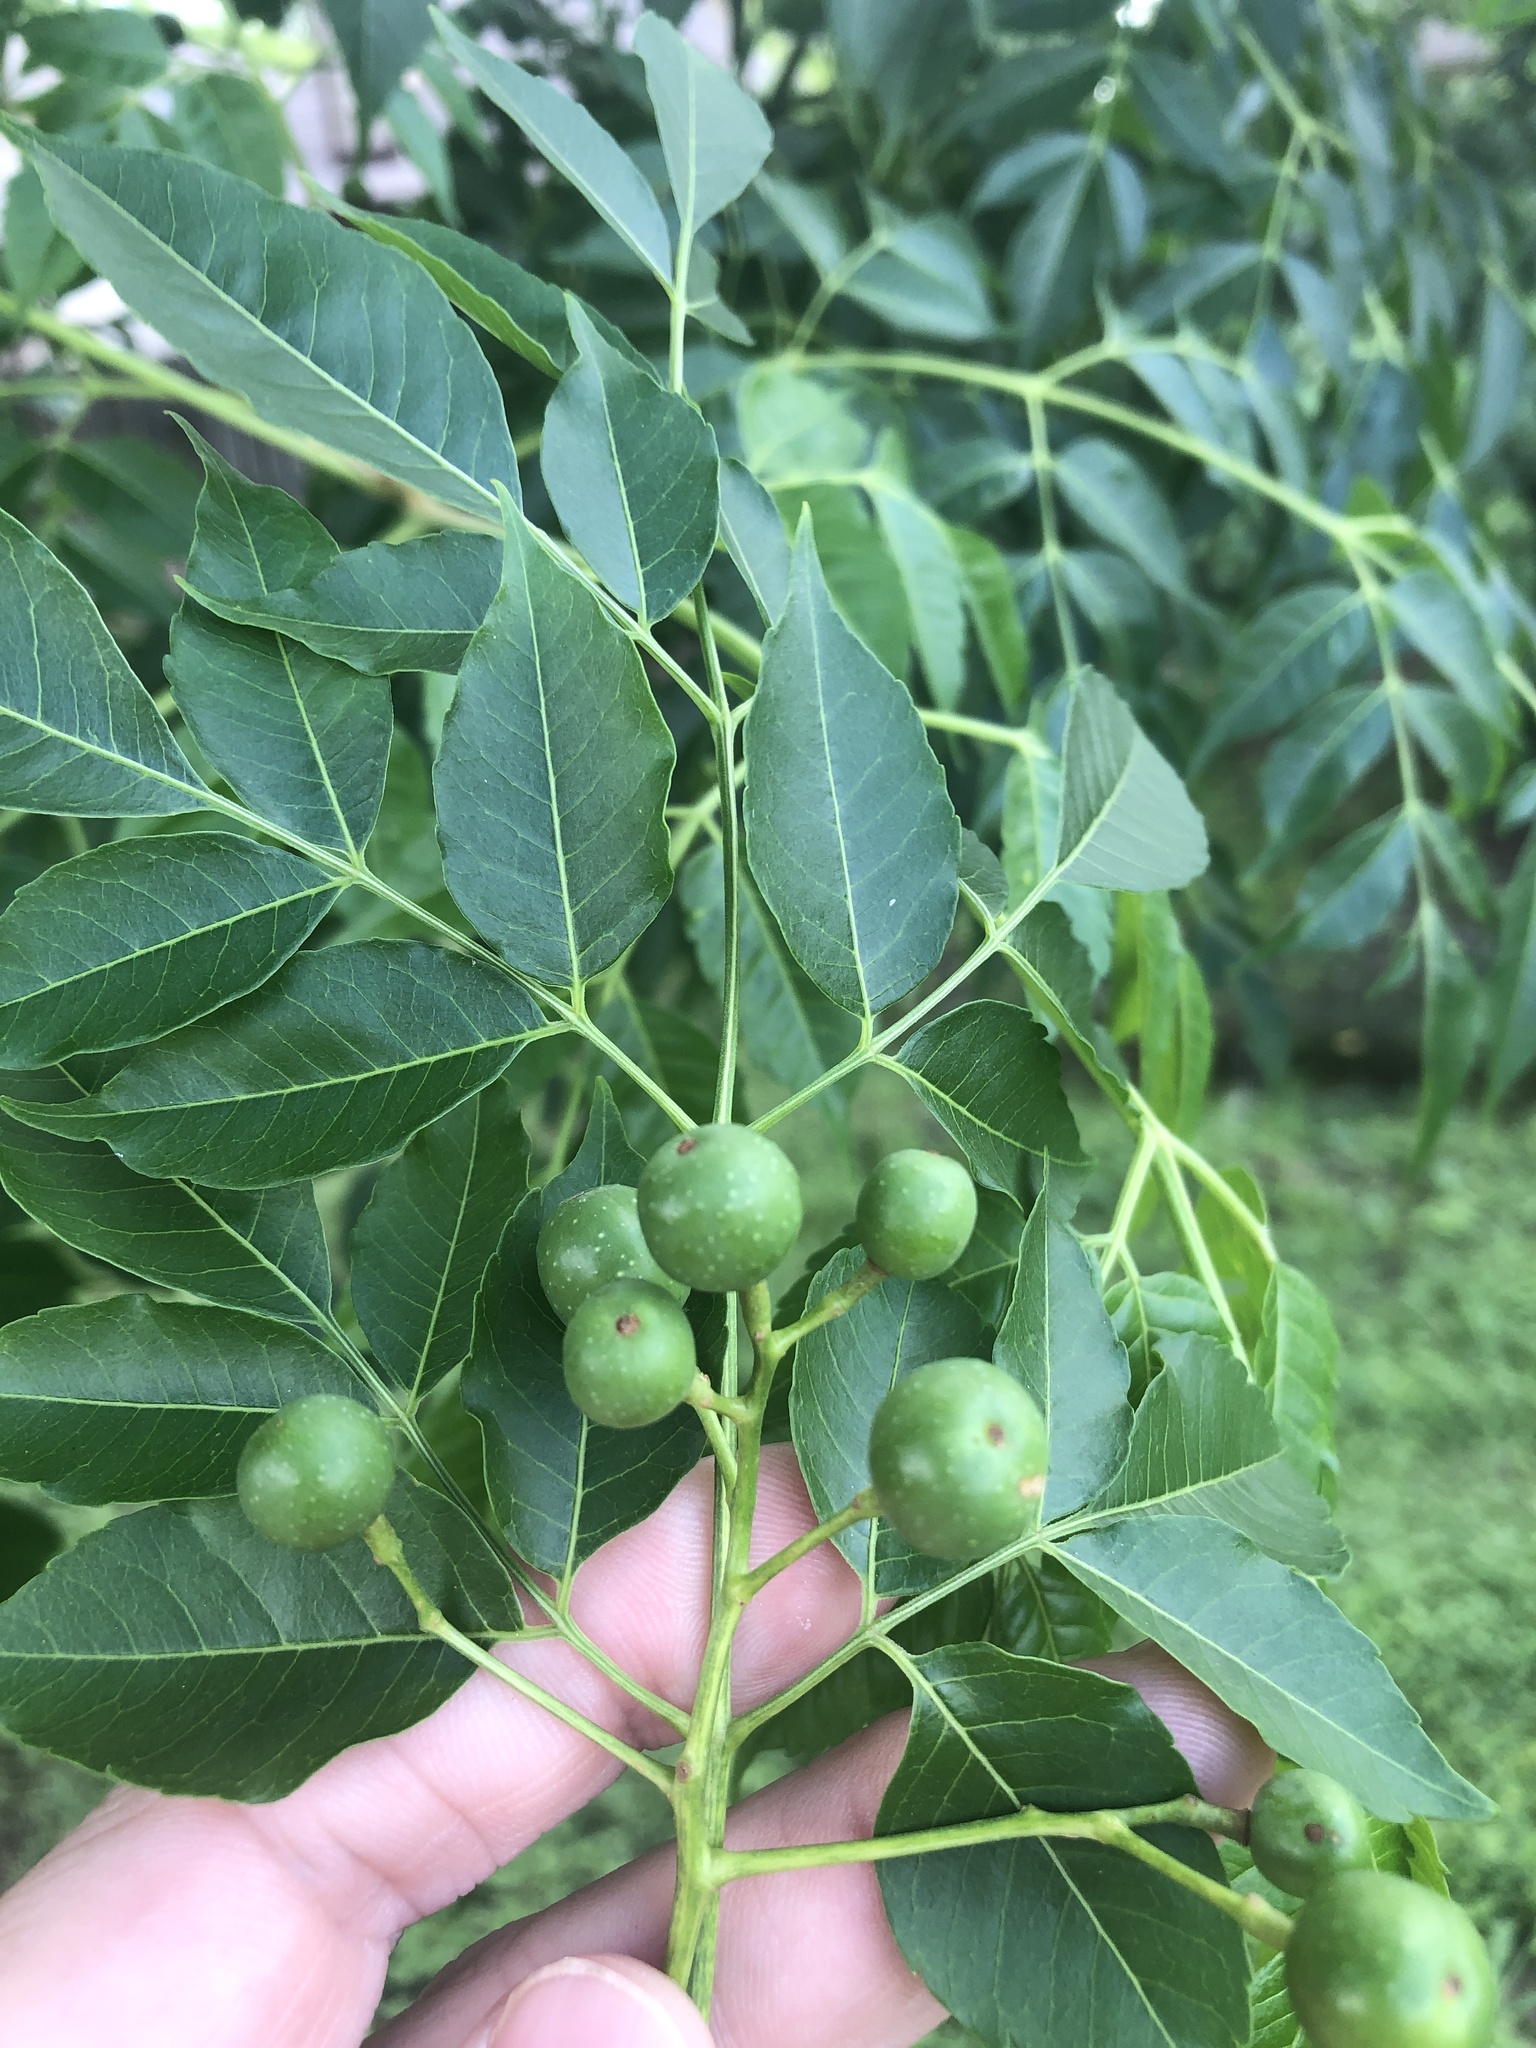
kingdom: Plantae
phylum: Tracheophyta
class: Magnoliopsida
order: Sapindales
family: Meliaceae
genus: Melia
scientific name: Melia azedarach
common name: Chinaberrytree
